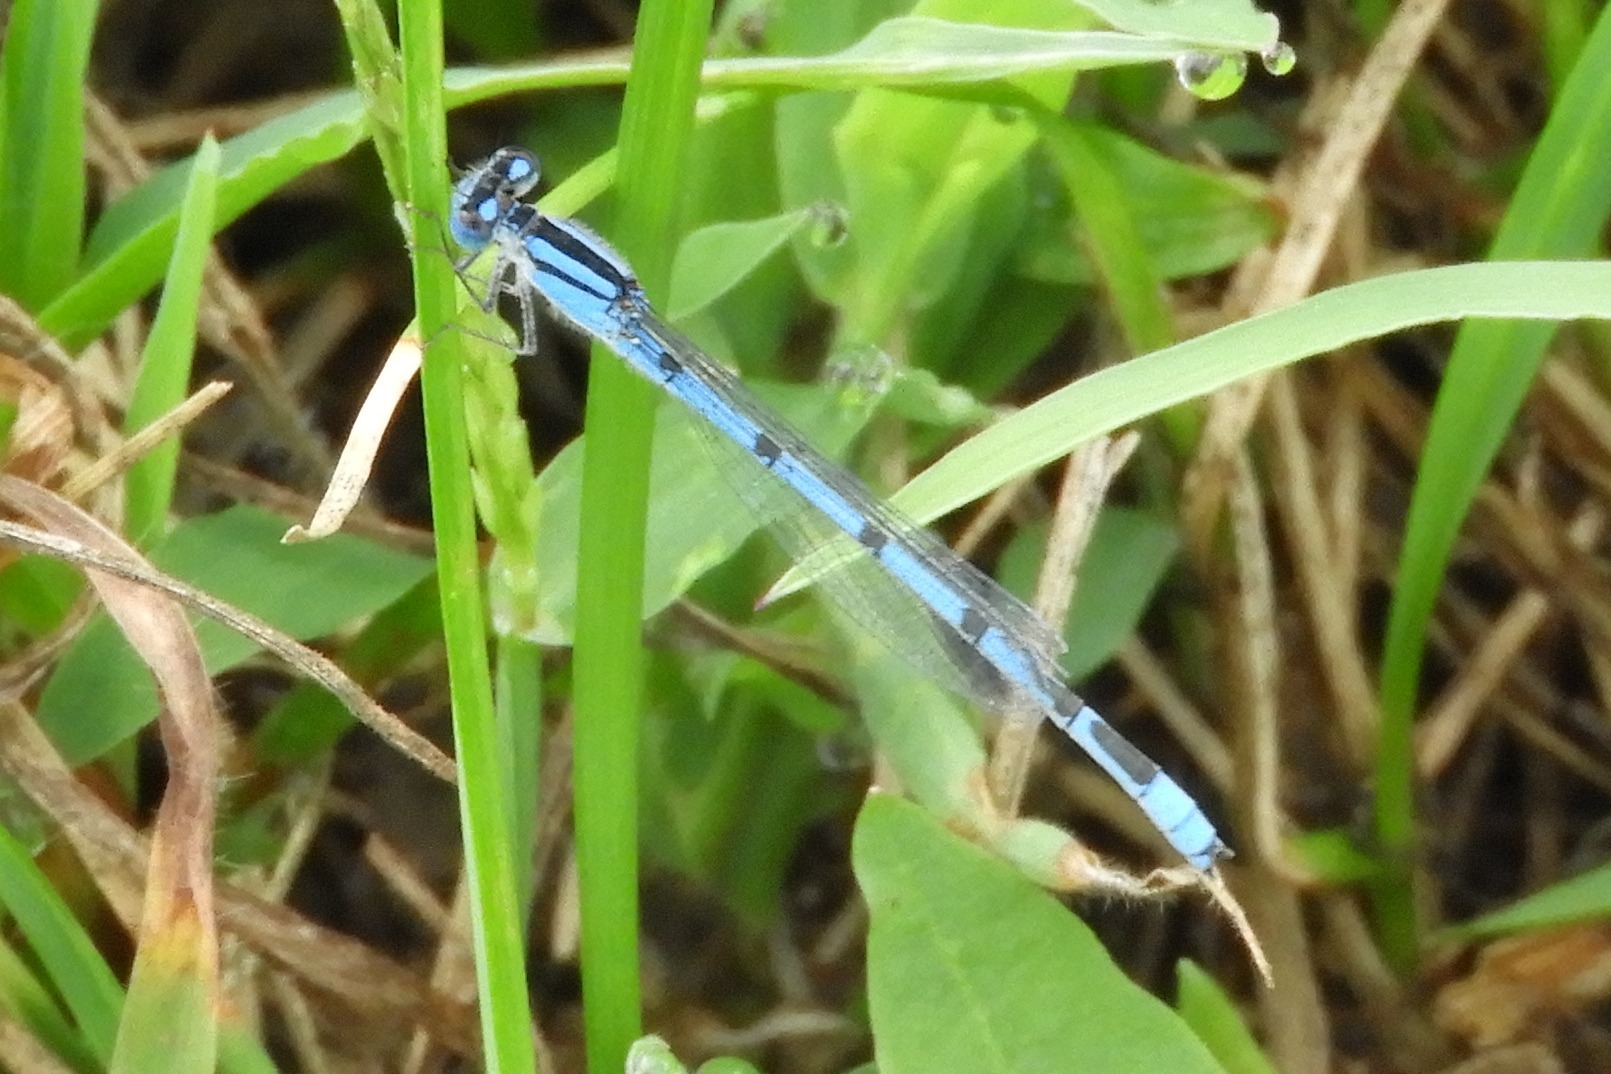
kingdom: Animalia
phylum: Arthropoda
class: Insecta
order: Odonata
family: Coenagrionidae
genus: Enallagma
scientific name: Enallagma civile
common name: Damselfly
